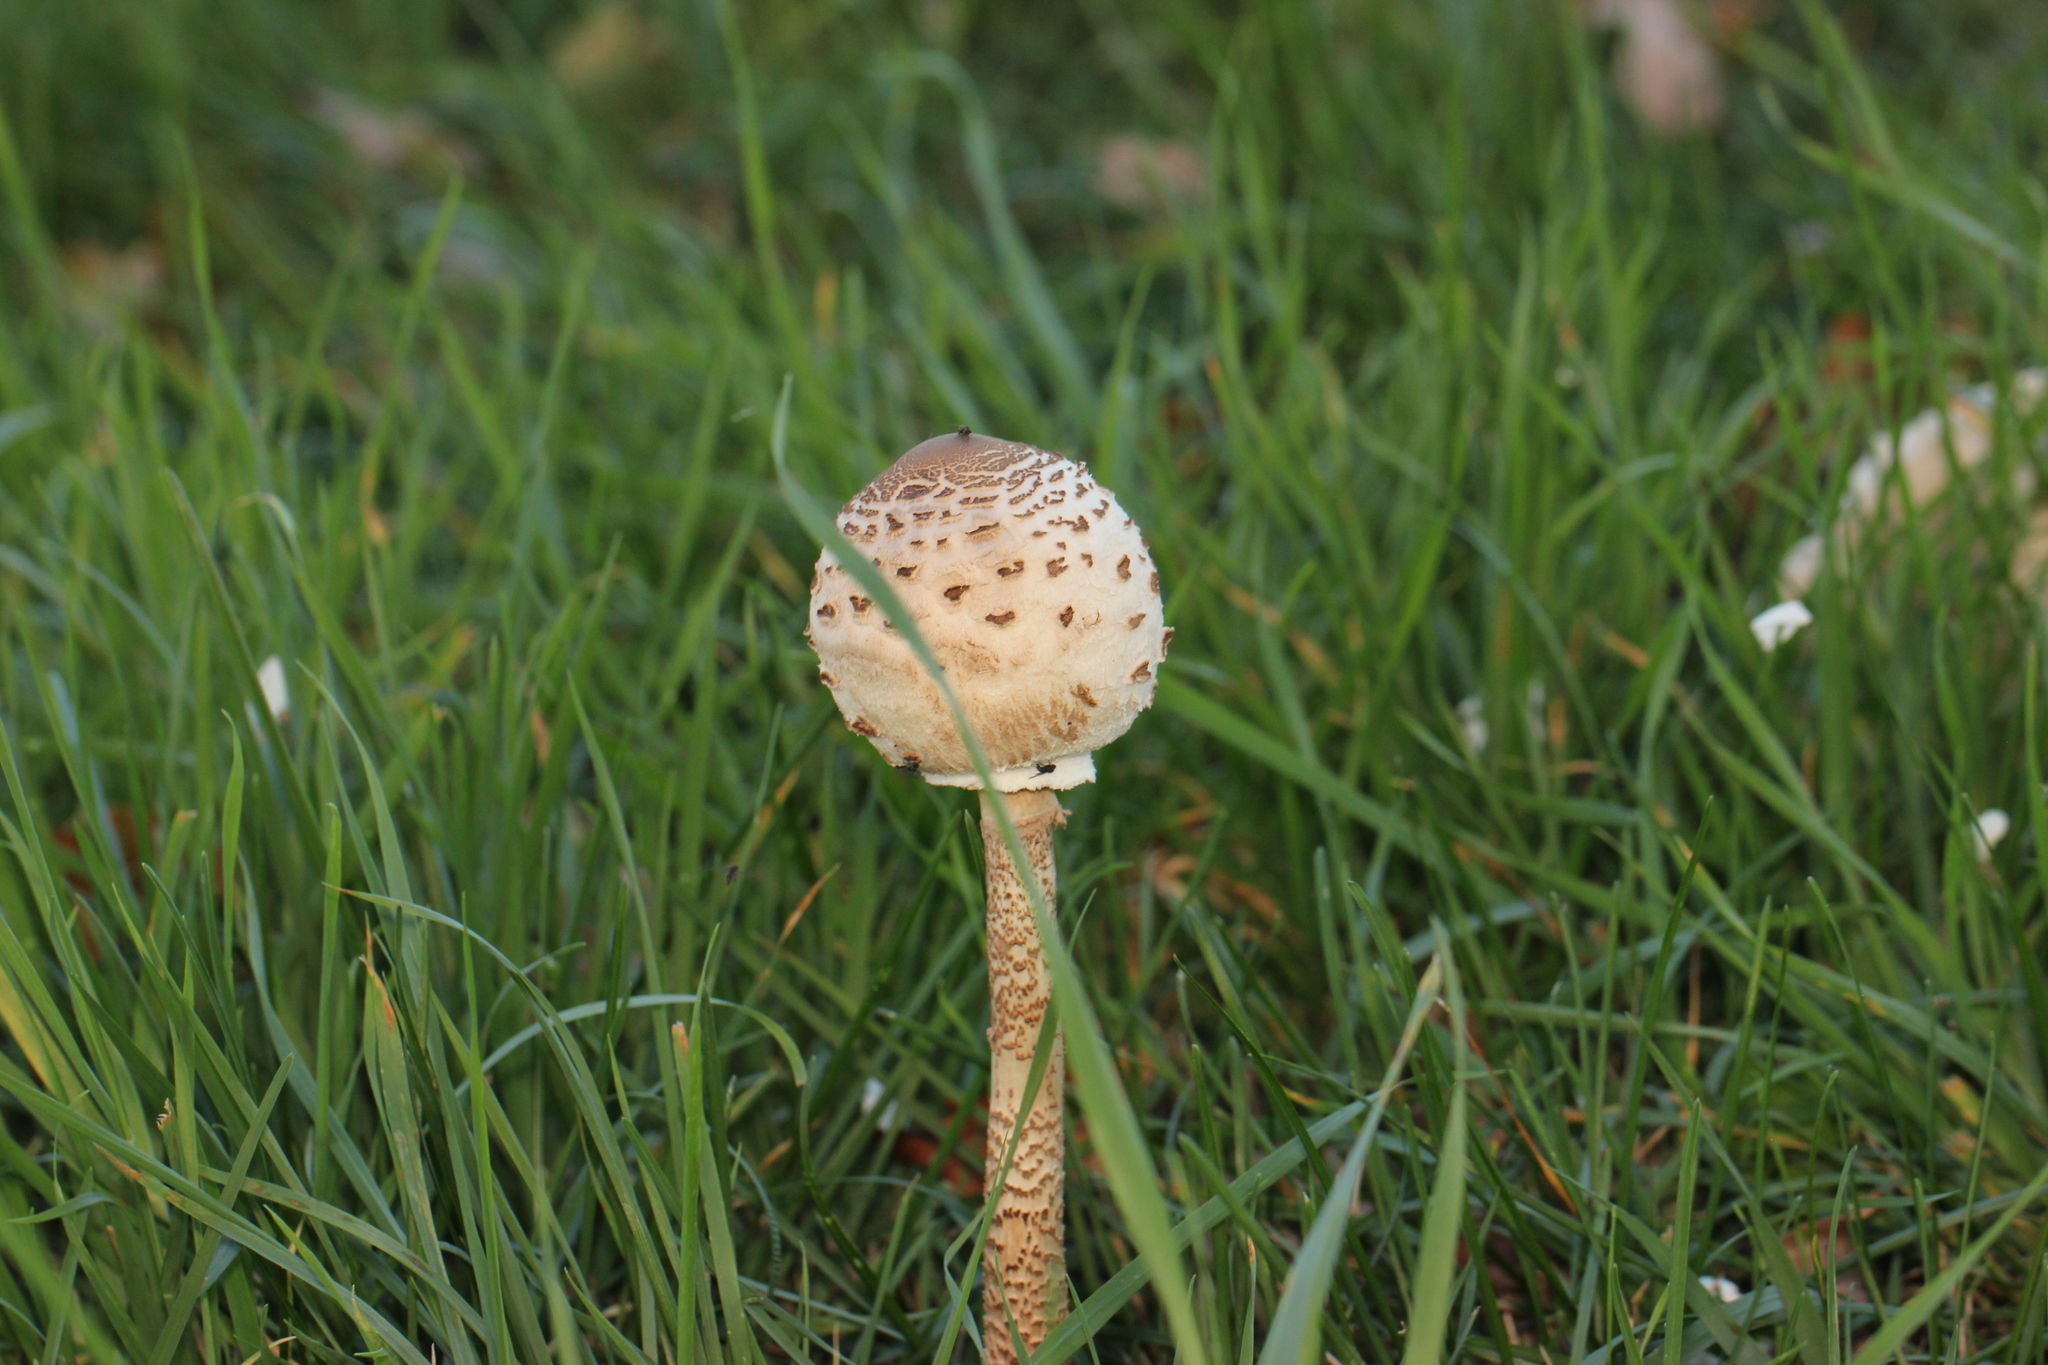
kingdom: Fungi
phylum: Basidiomycota
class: Agaricomycetes
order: Agaricales
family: Agaricaceae
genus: Macrolepiota
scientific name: Macrolepiota procera
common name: Parasol
